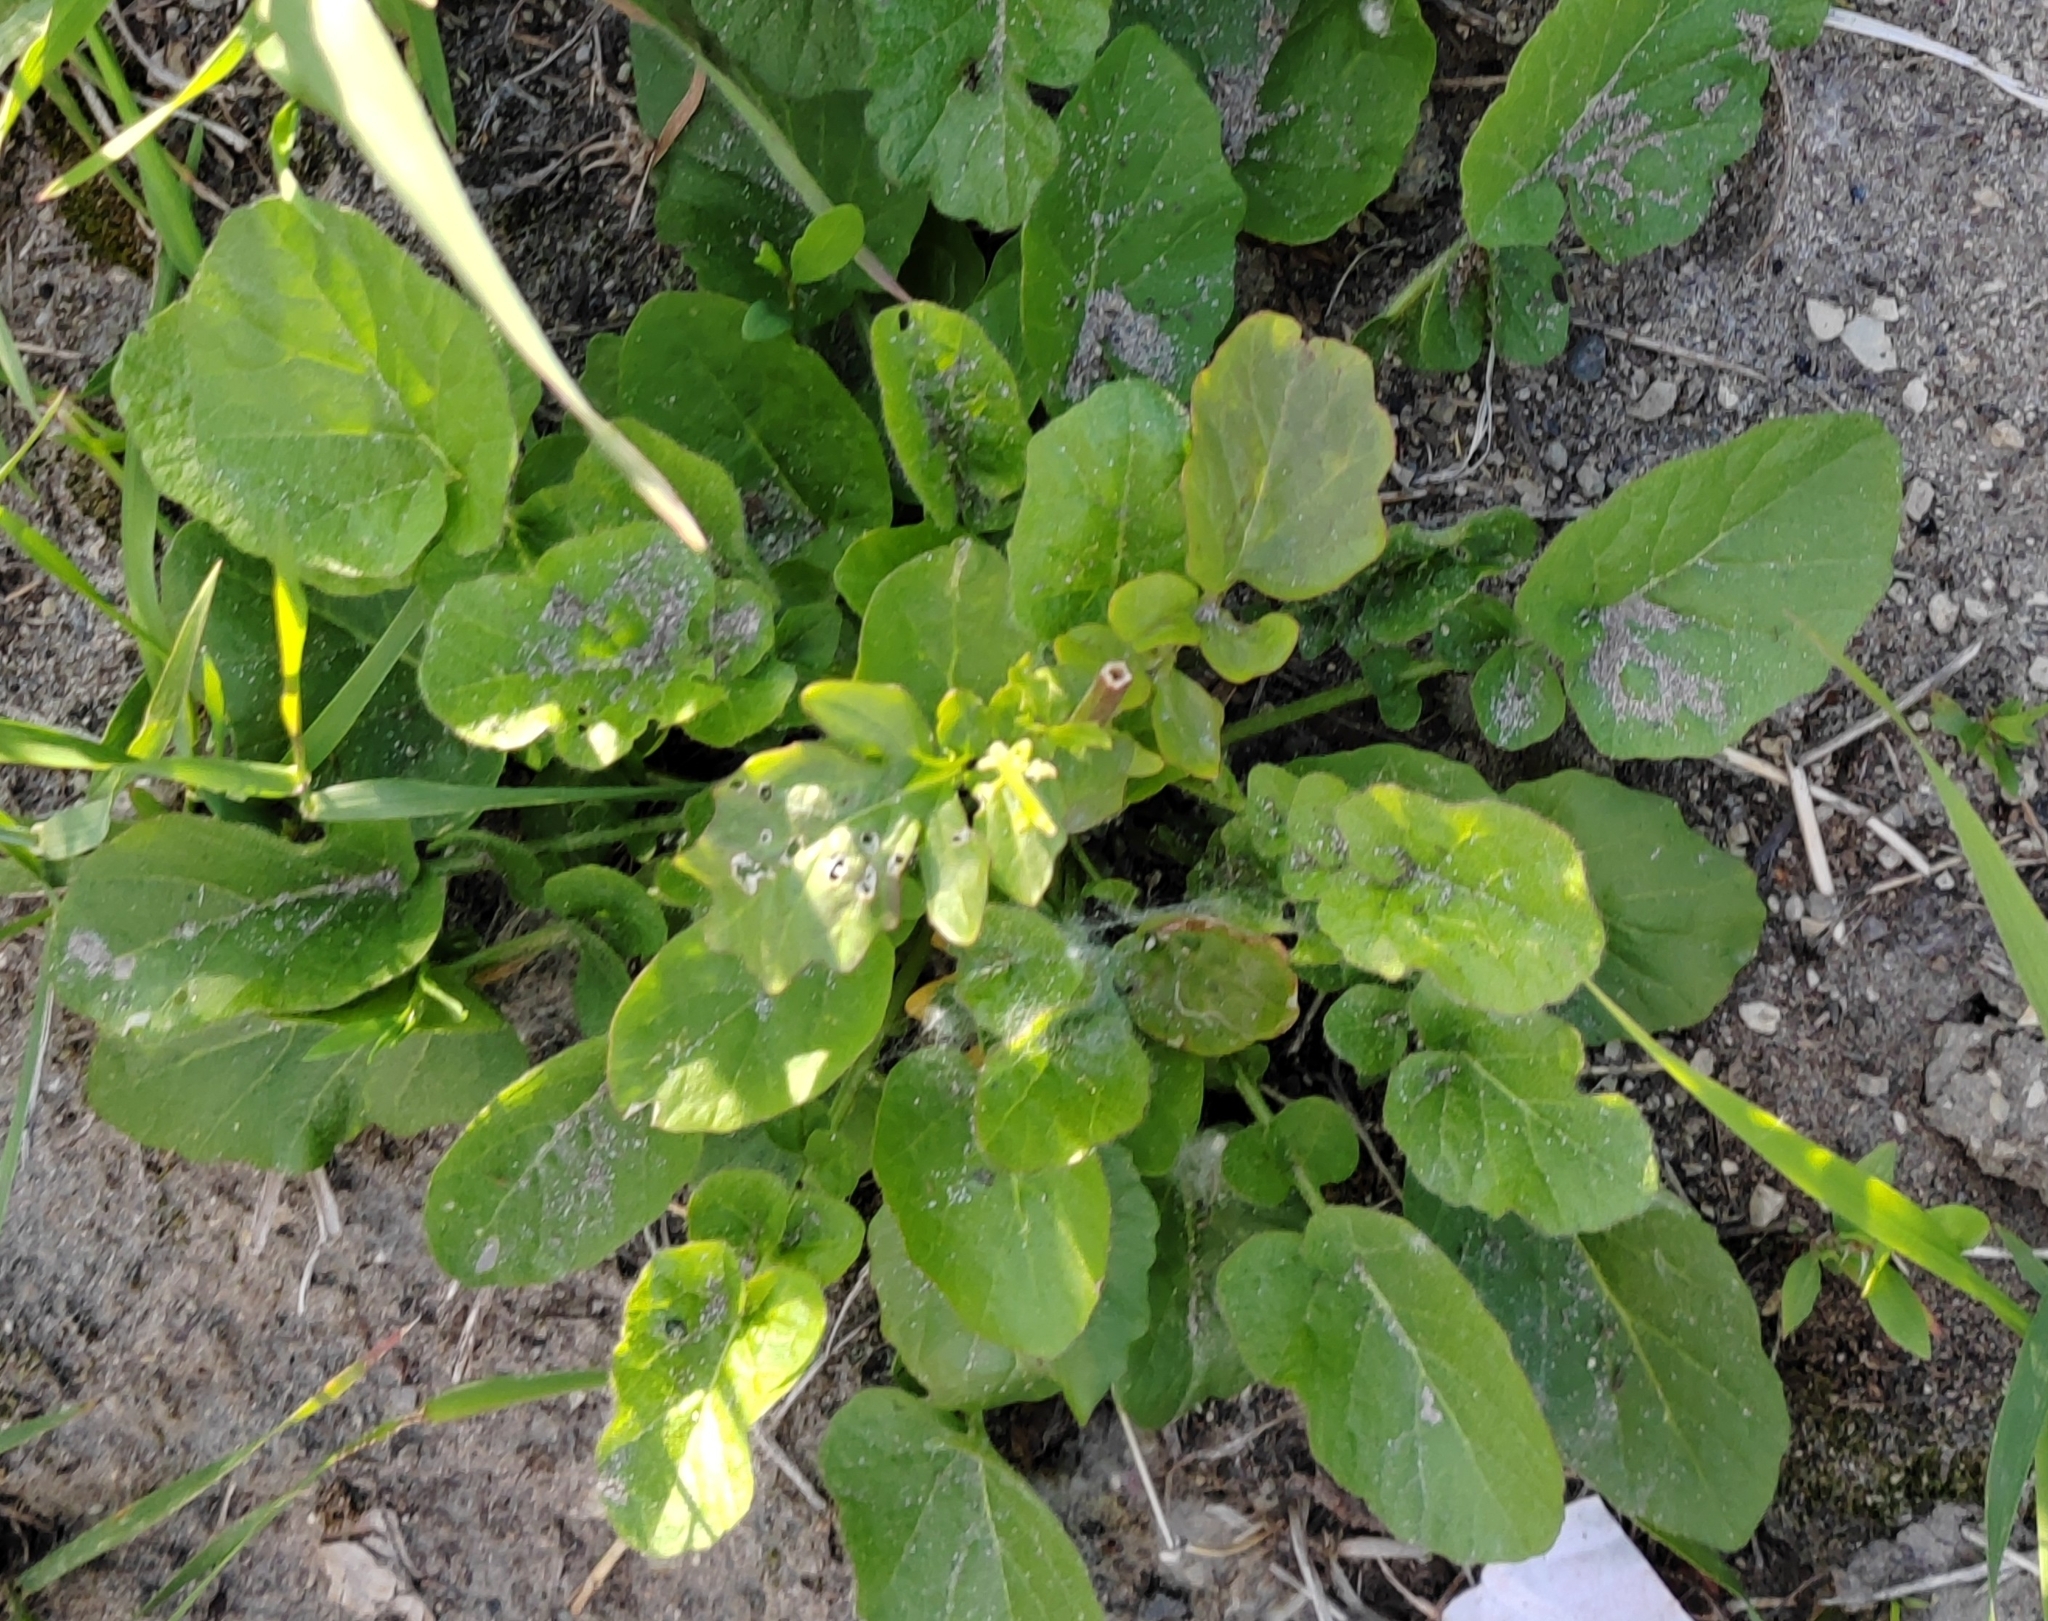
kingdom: Plantae
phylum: Tracheophyta
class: Magnoliopsida
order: Brassicales
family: Brassicaceae
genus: Barbarea
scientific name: Barbarea vulgaris
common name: Cressy-greens
